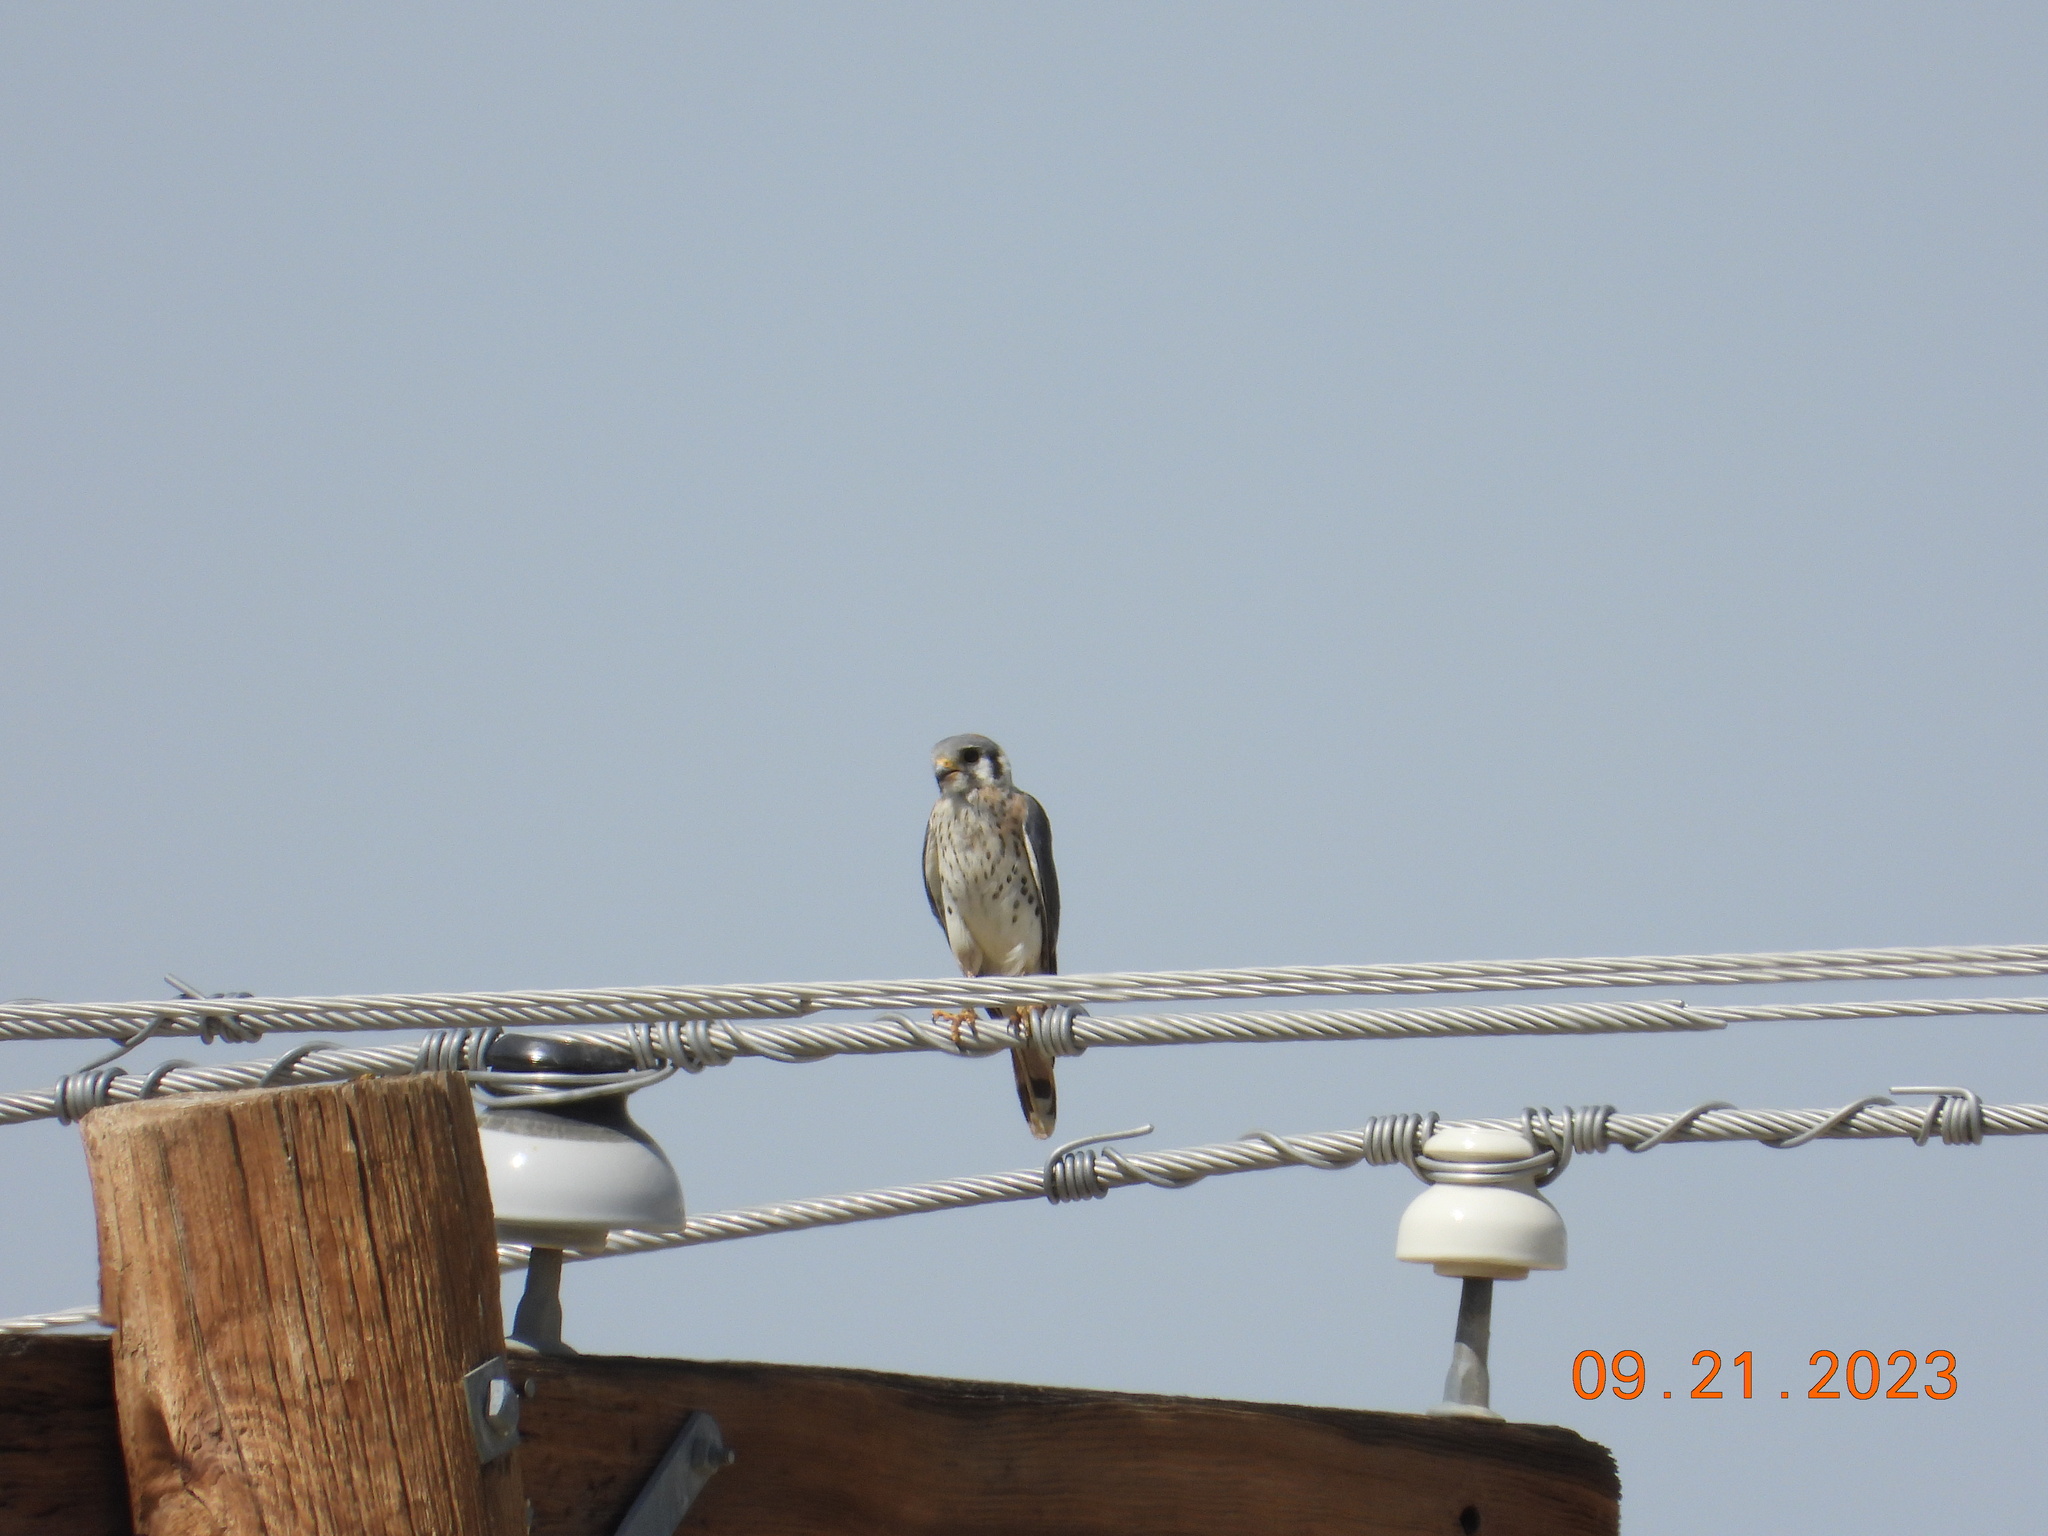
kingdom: Animalia
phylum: Chordata
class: Aves
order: Falconiformes
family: Falconidae
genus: Falco
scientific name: Falco sparverius
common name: American kestrel
